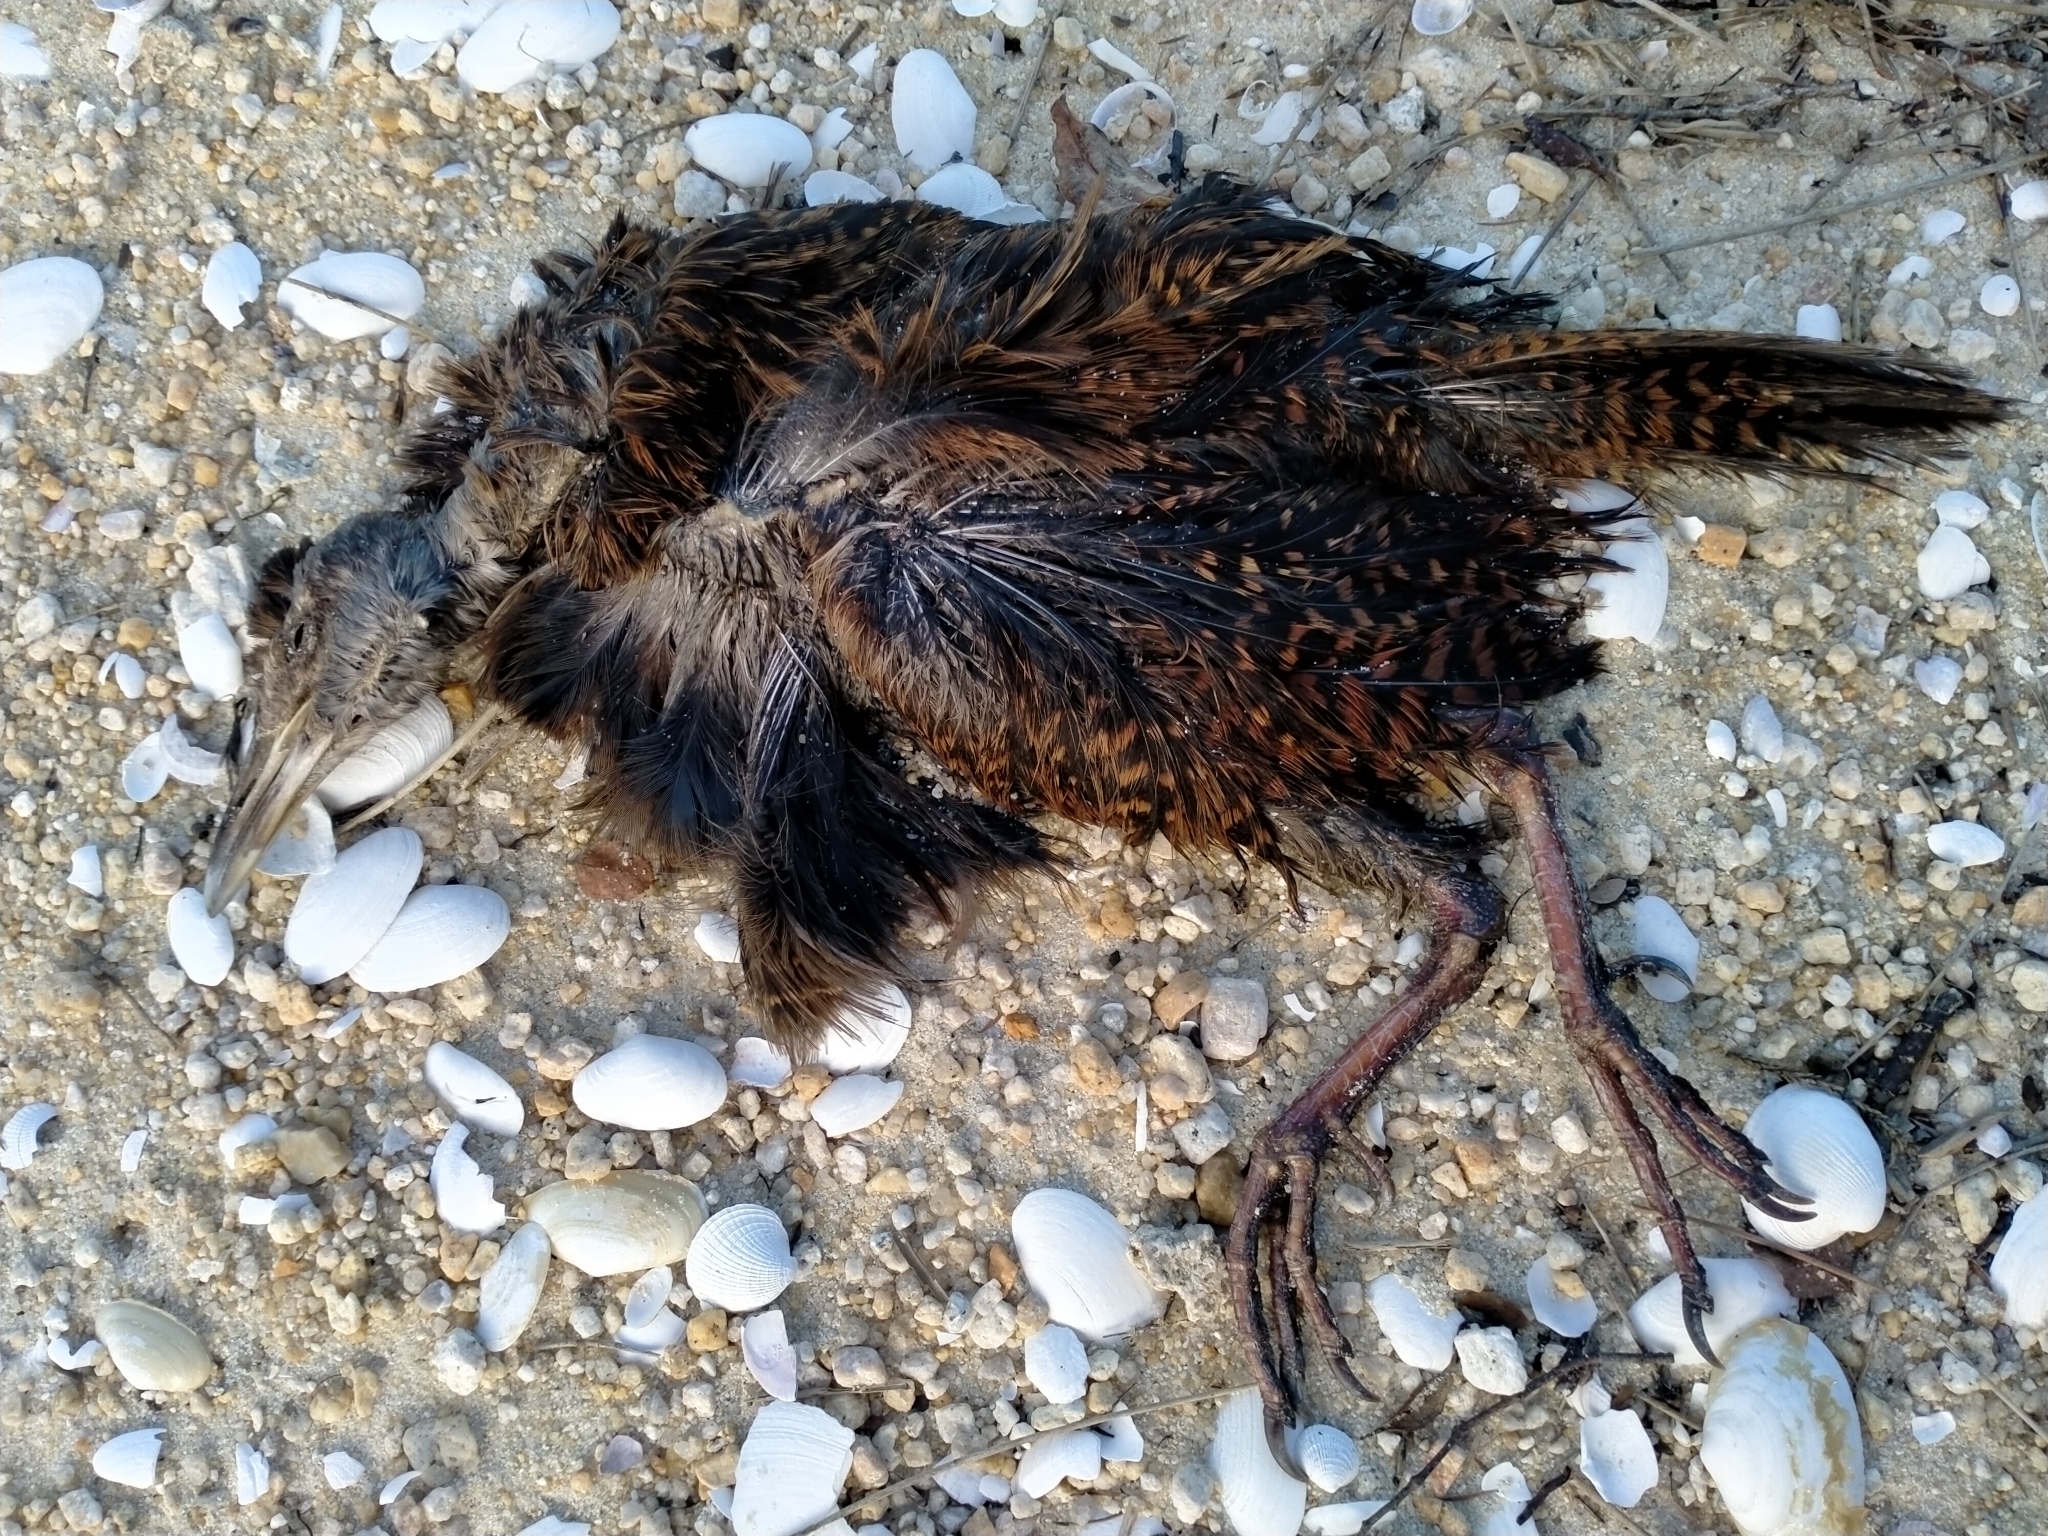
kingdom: Animalia
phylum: Chordata
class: Aves
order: Gruiformes
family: Rallidae
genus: Gallirallus
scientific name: Gallirallus australis
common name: Weka
